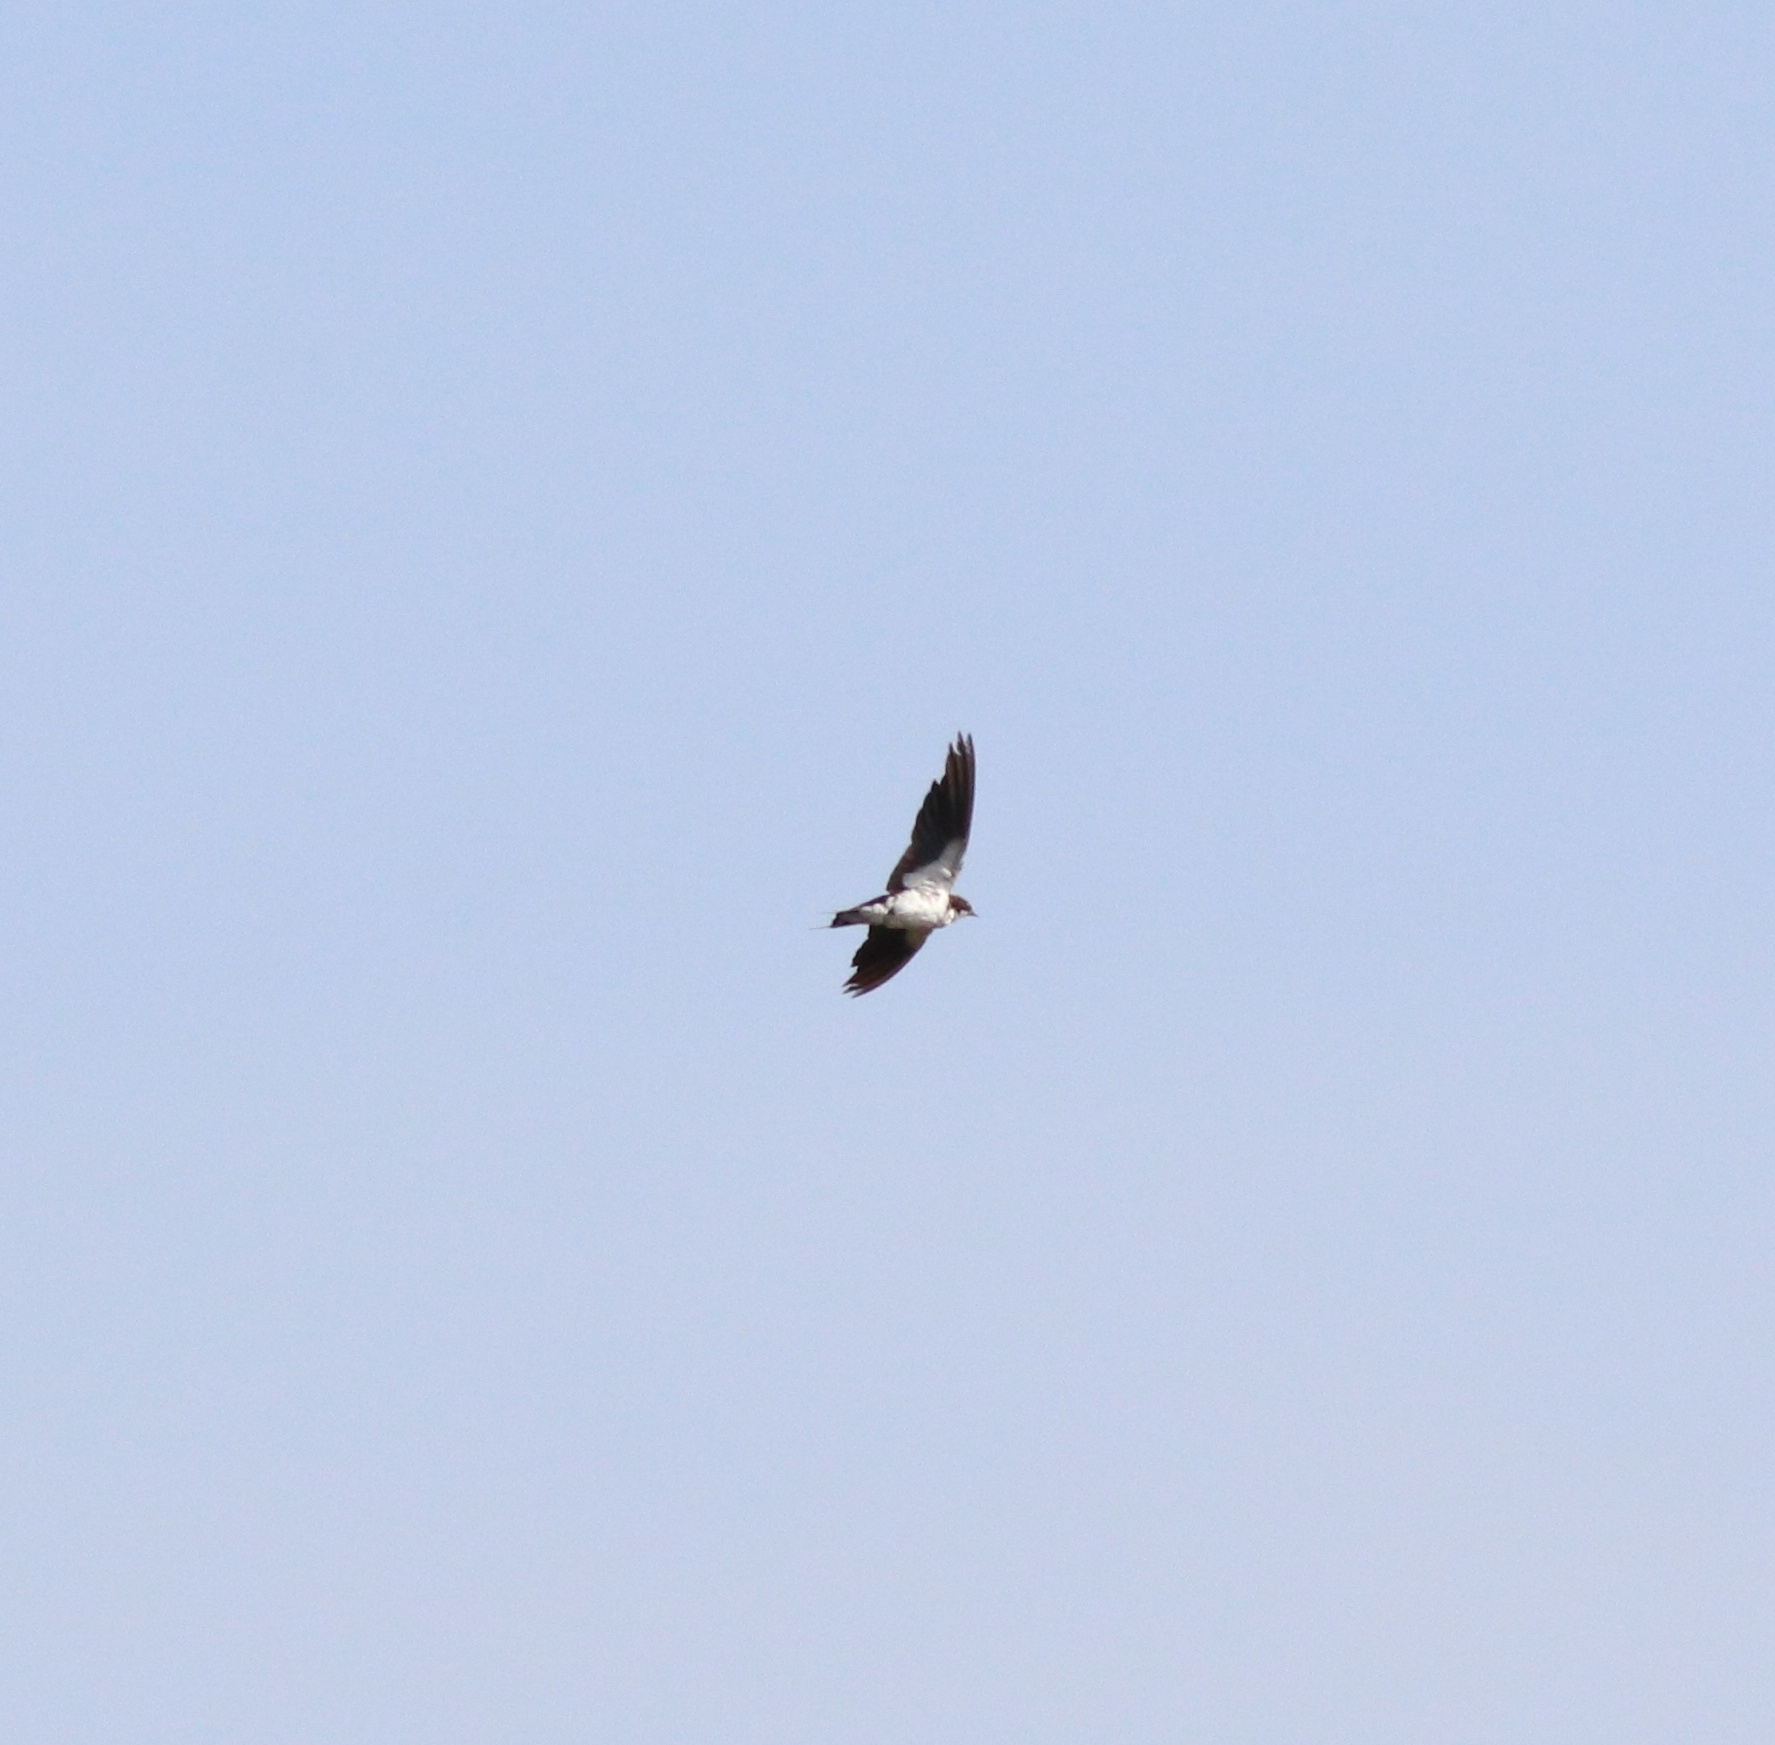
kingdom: Animalia
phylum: Chordata
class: Aves
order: Passeriformes
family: Hirundinidae
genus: Hirundo
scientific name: Hirundo smithii
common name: Wire-tailed swallow
